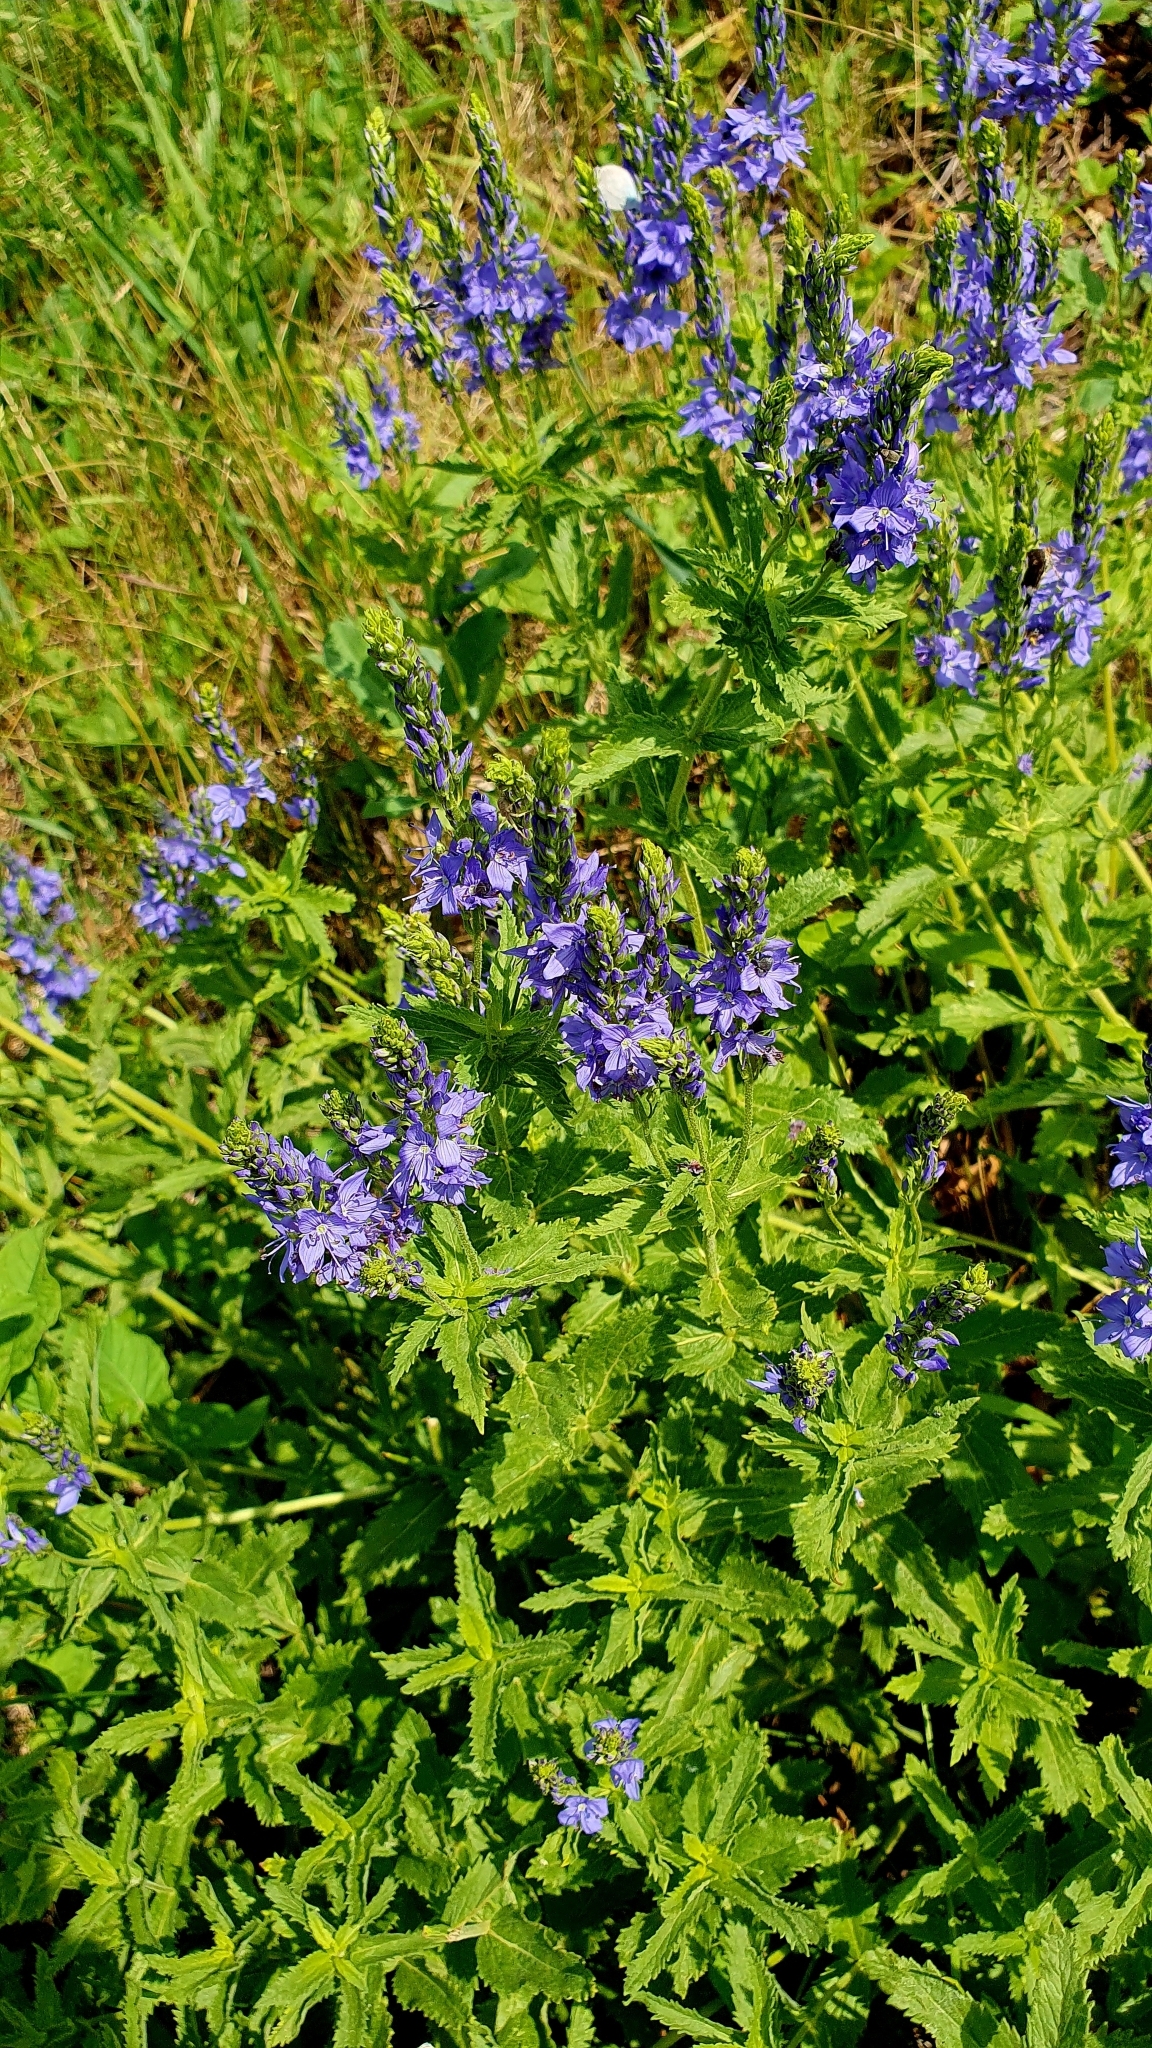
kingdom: Plantae
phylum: Tracheophyta
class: Magnoliopsida
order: Lamiales
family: Plantaginaceae
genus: Veronica
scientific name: Veronica teucrium
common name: Large speedwell
